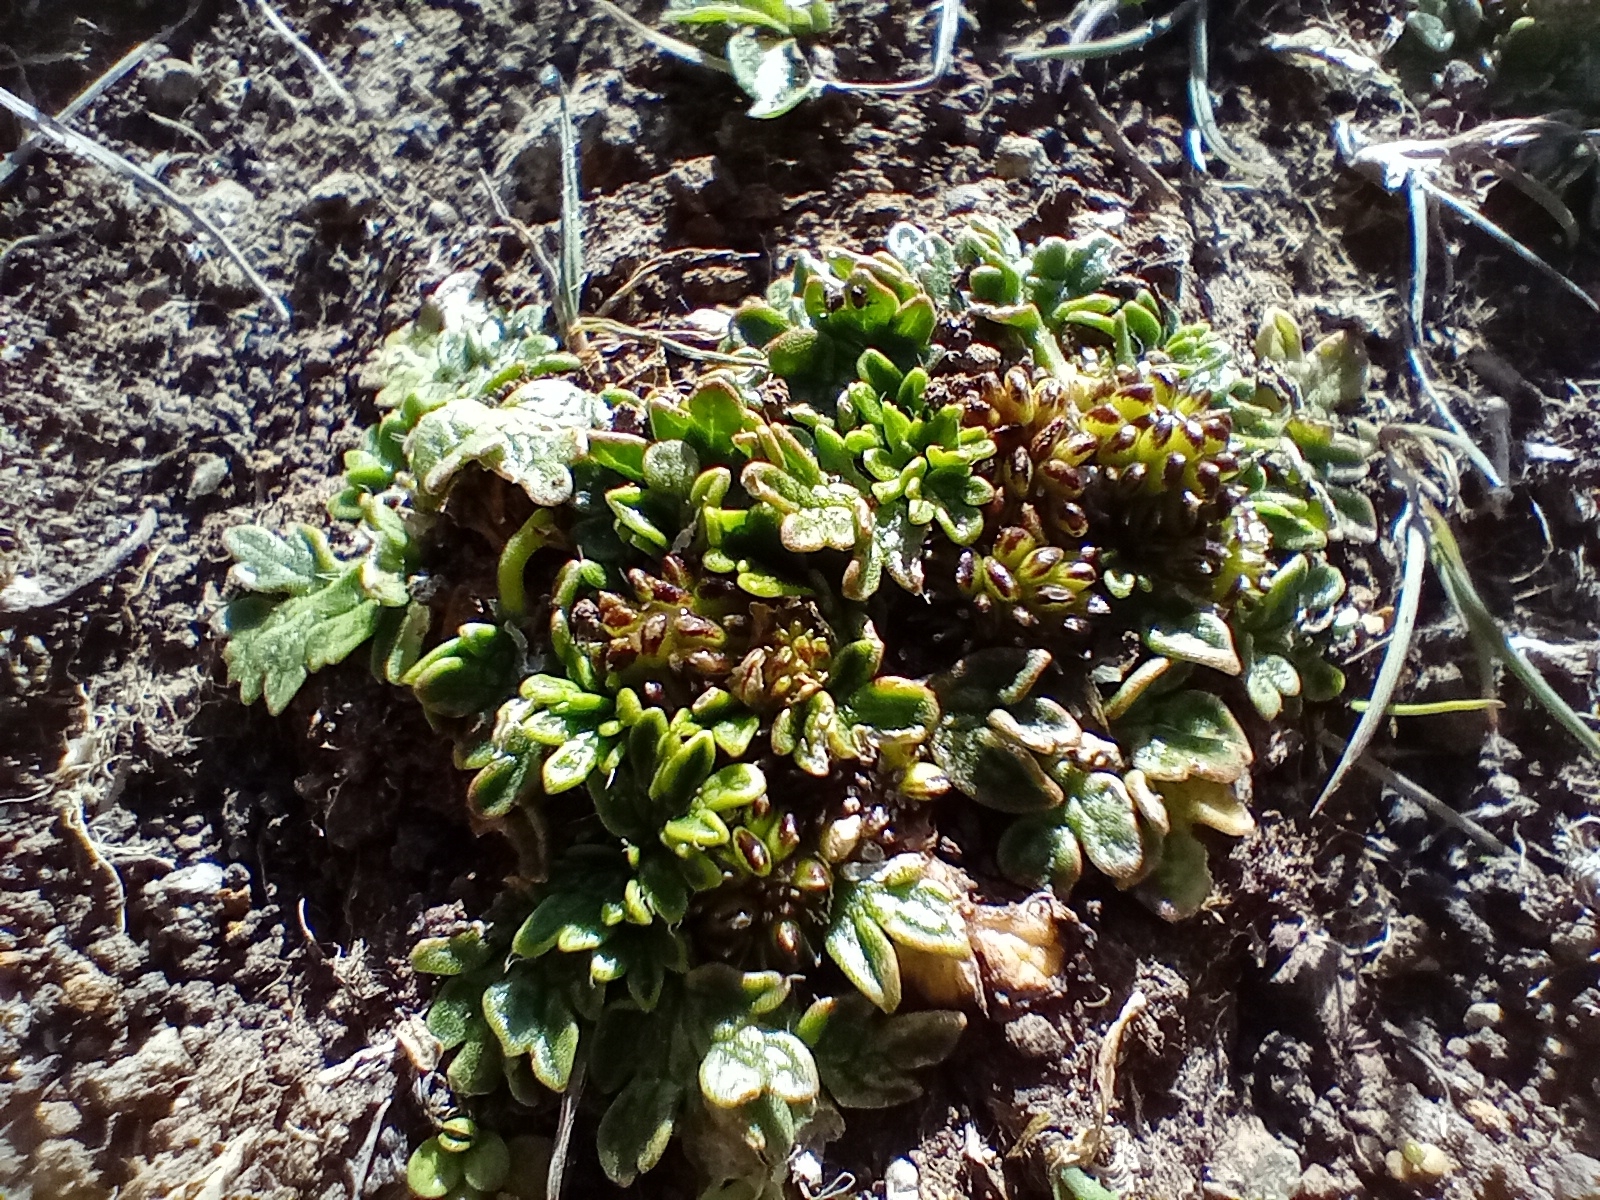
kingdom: Plantae
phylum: Tracheophyta
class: Magnoliopsida
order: Ranunculales
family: Ranunculaceae
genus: Ranunculus
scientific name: Ranunculus recens
